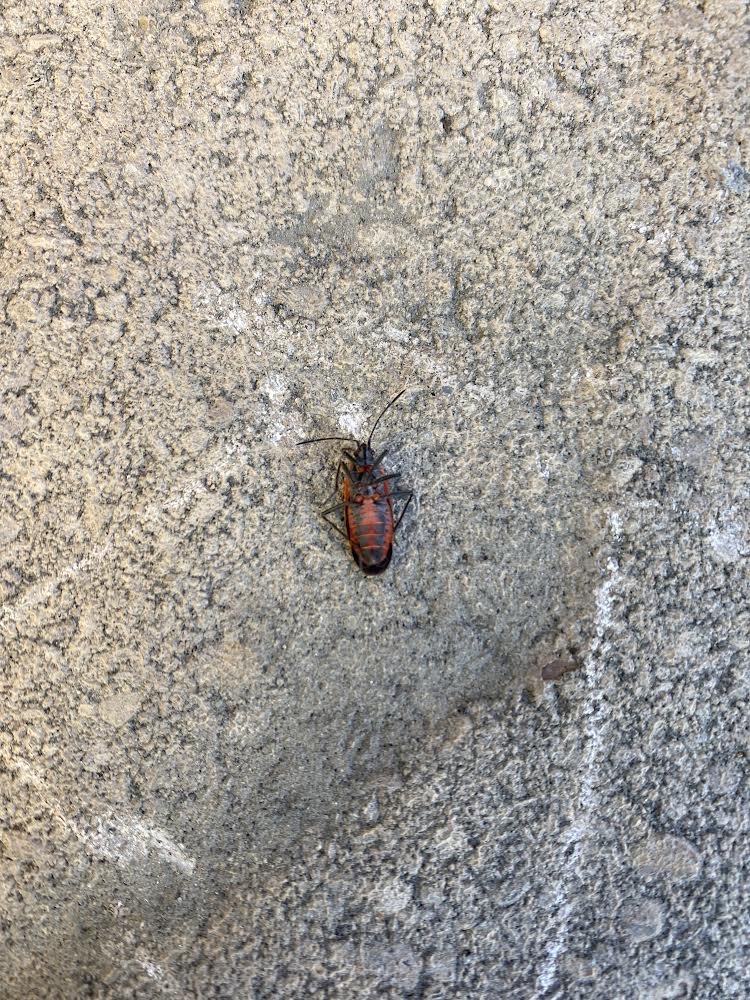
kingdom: Animalia
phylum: Arthropoda
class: Insecta
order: Hemiptera
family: Rhopalidae
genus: Boisea
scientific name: Boisea trivittata
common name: Boxelder bug
